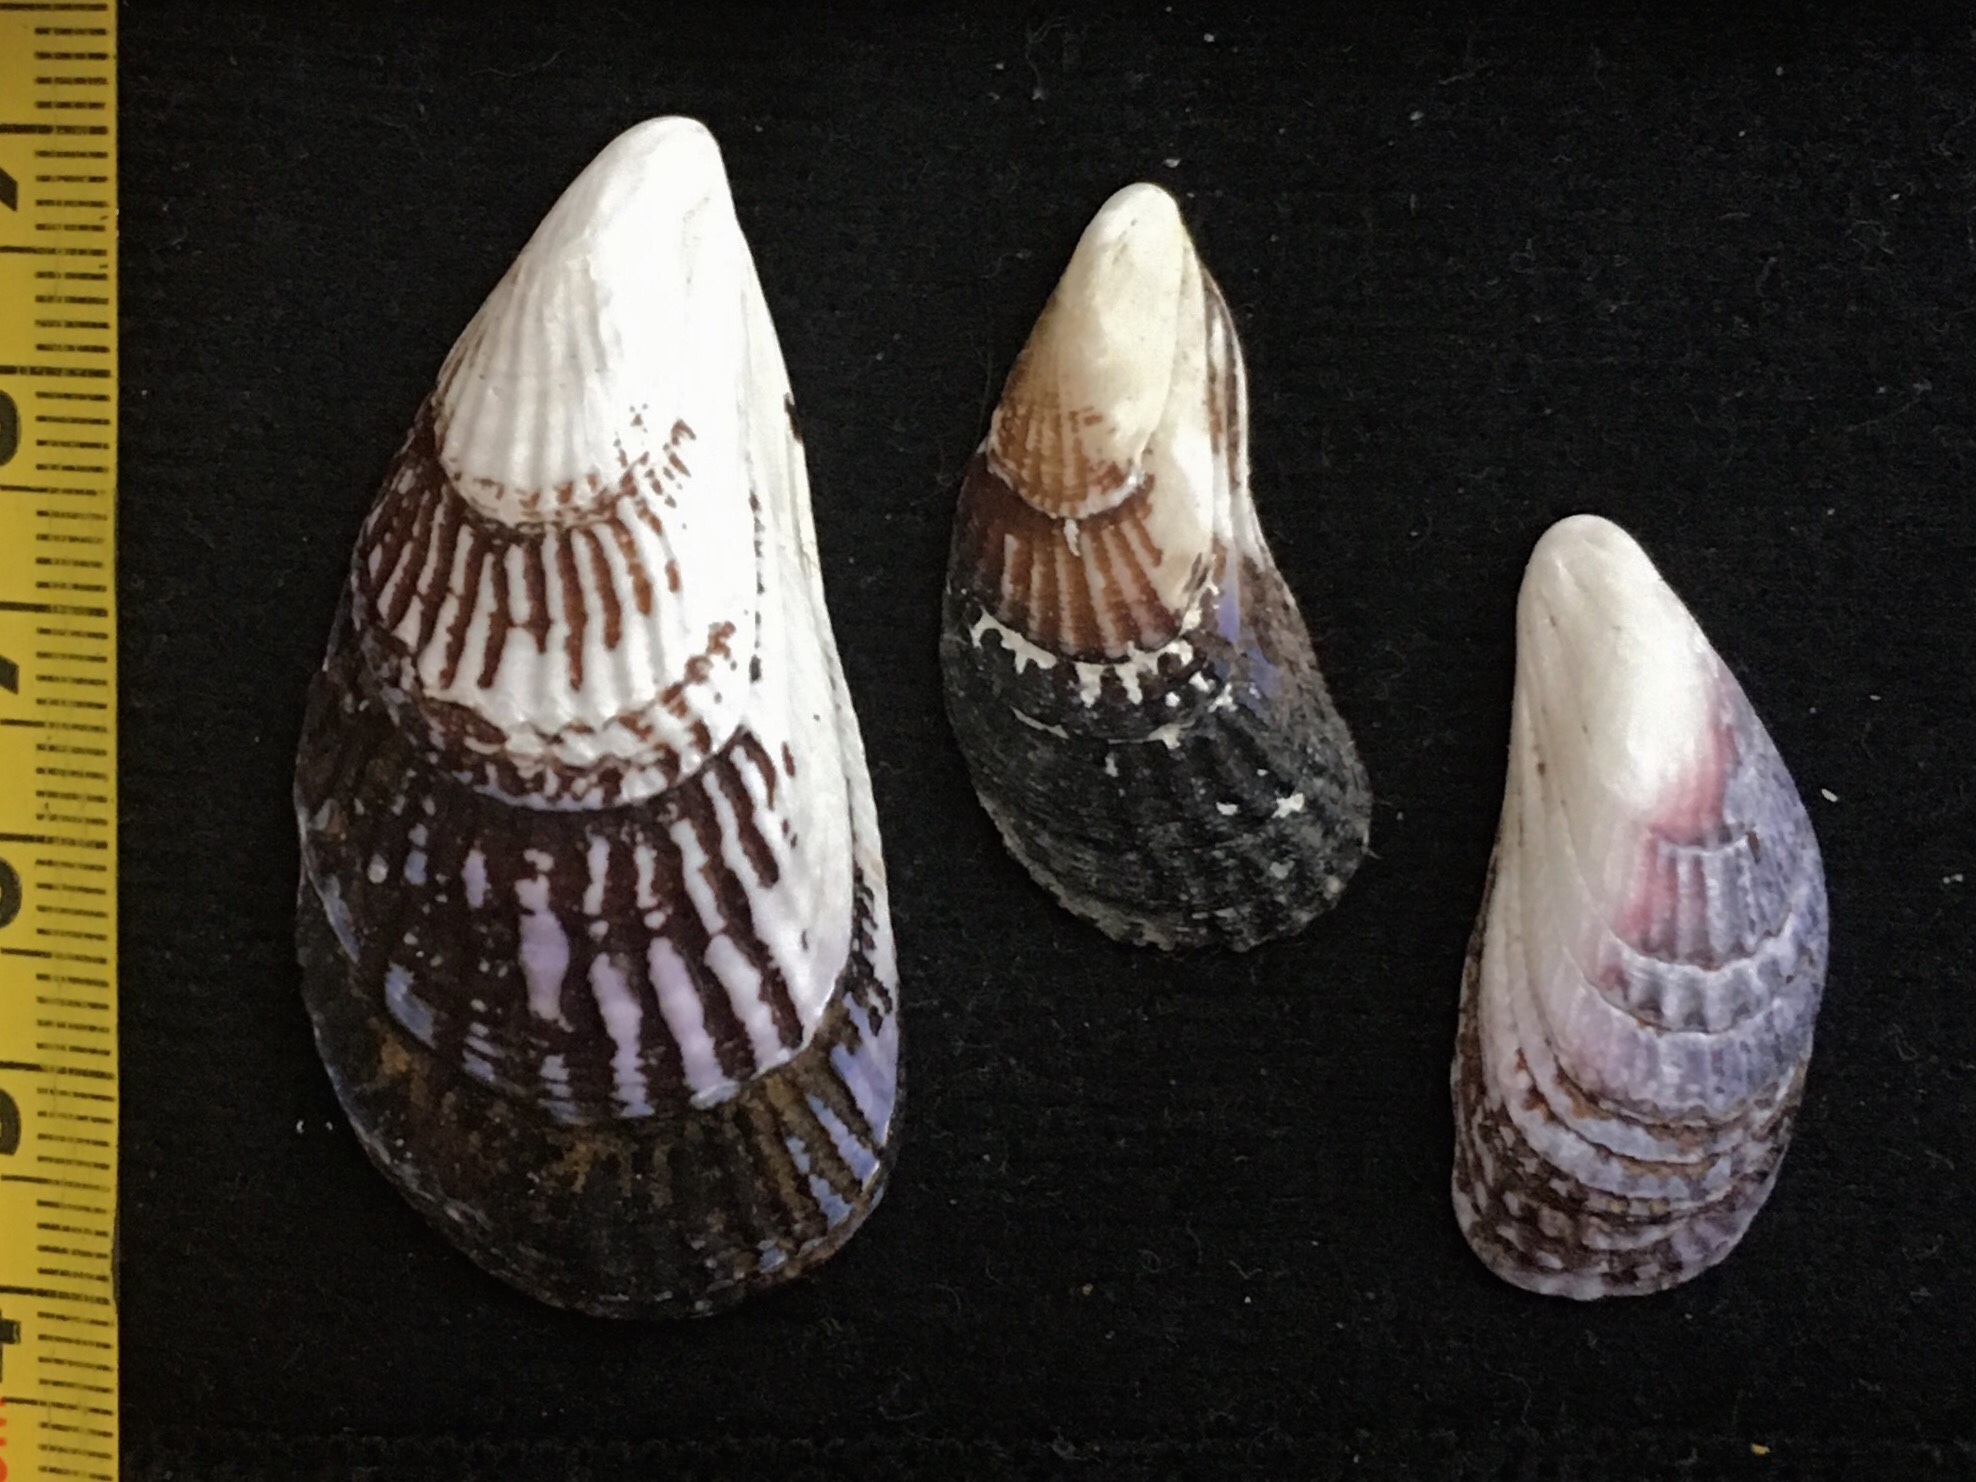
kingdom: Animalia
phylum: Mollusca
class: Bivalvia
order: Mytilida
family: Mytilidae
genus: Aulacomya
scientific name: Aulacomya atra
